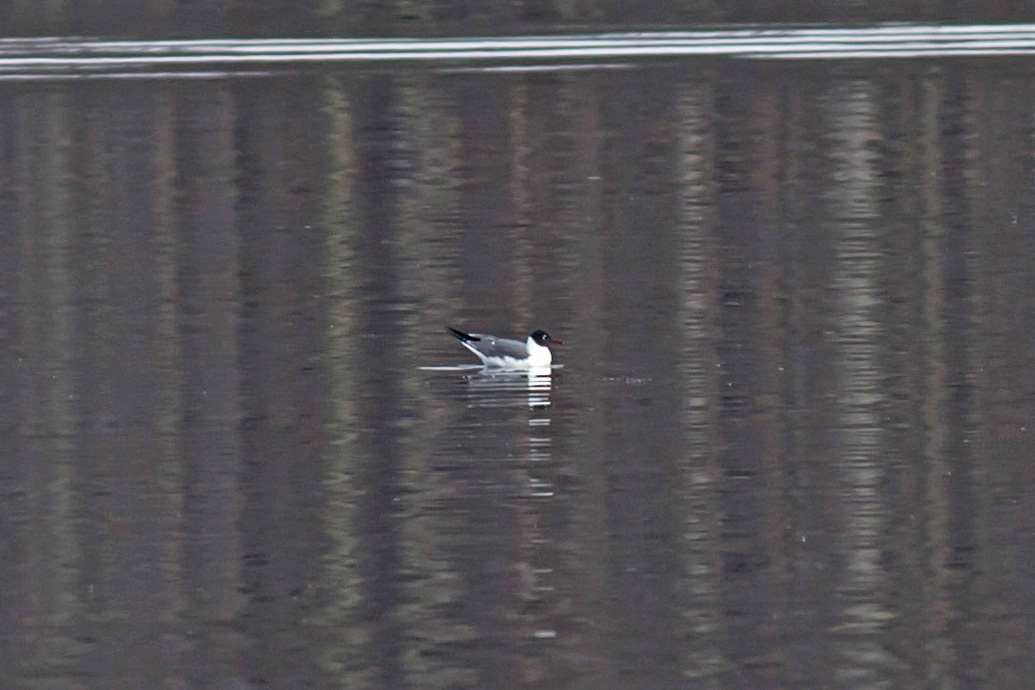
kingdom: Animalia
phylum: Chordata
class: Aves
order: Charadriiformes
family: Laridae
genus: Leucophaeus
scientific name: Leucophaeus atricilla
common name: Laughing gull
